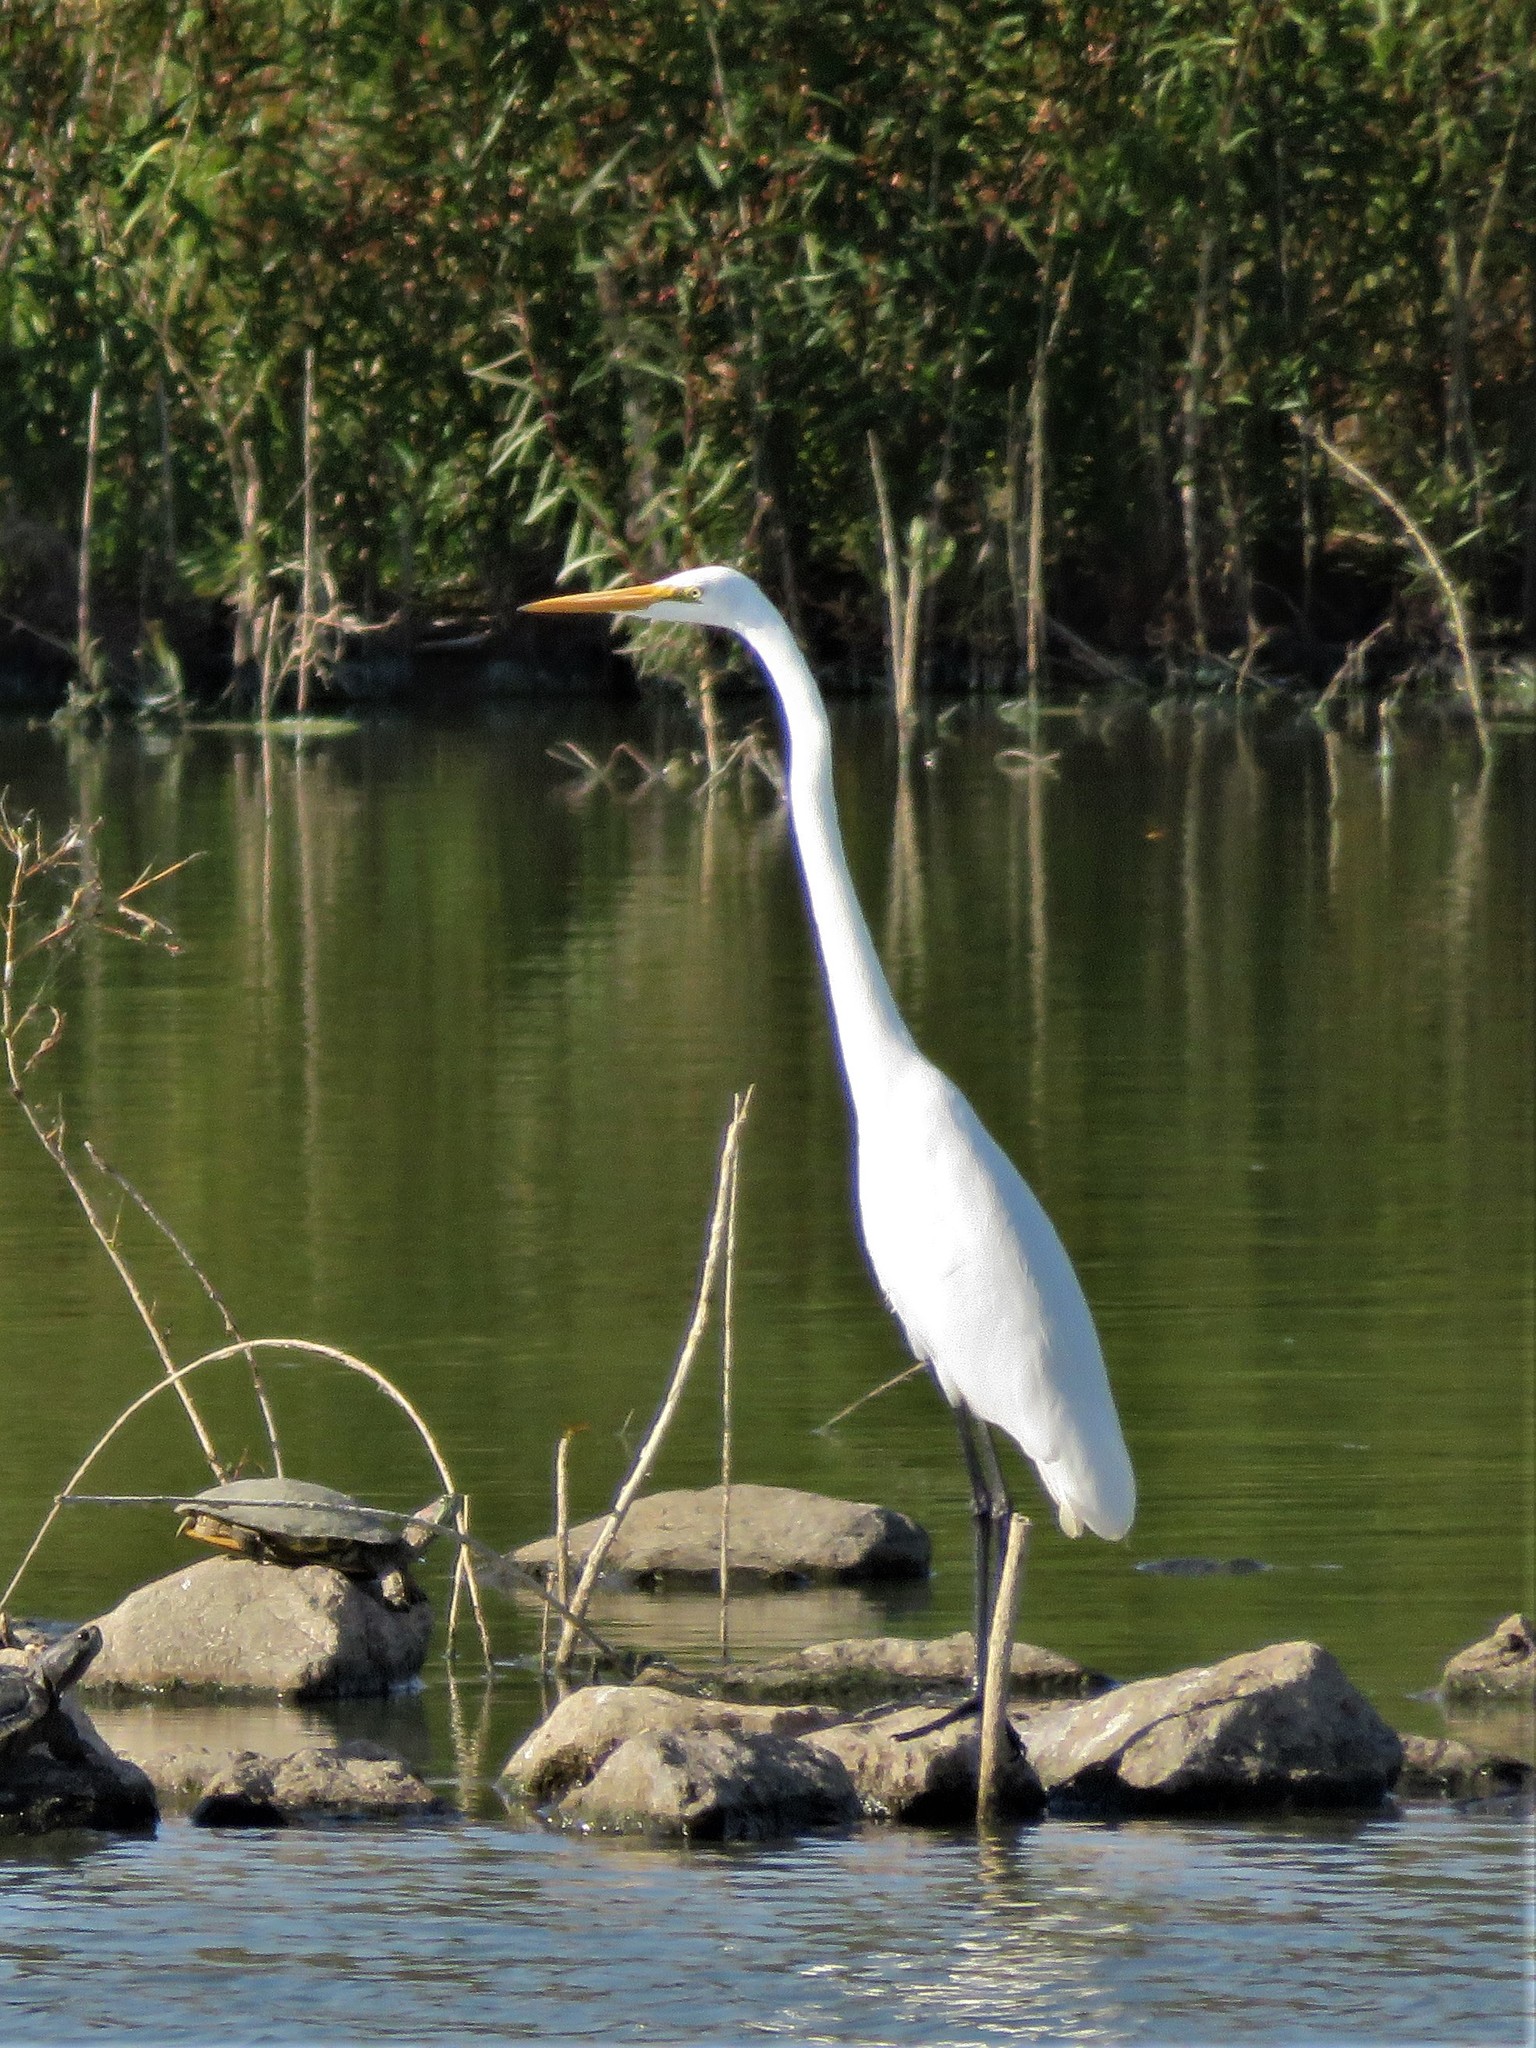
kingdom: Animalia
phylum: Chordata
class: Aves
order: Pelecaniformes
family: Ardeidae
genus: Ardea
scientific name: Ardea alba
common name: Great egret
